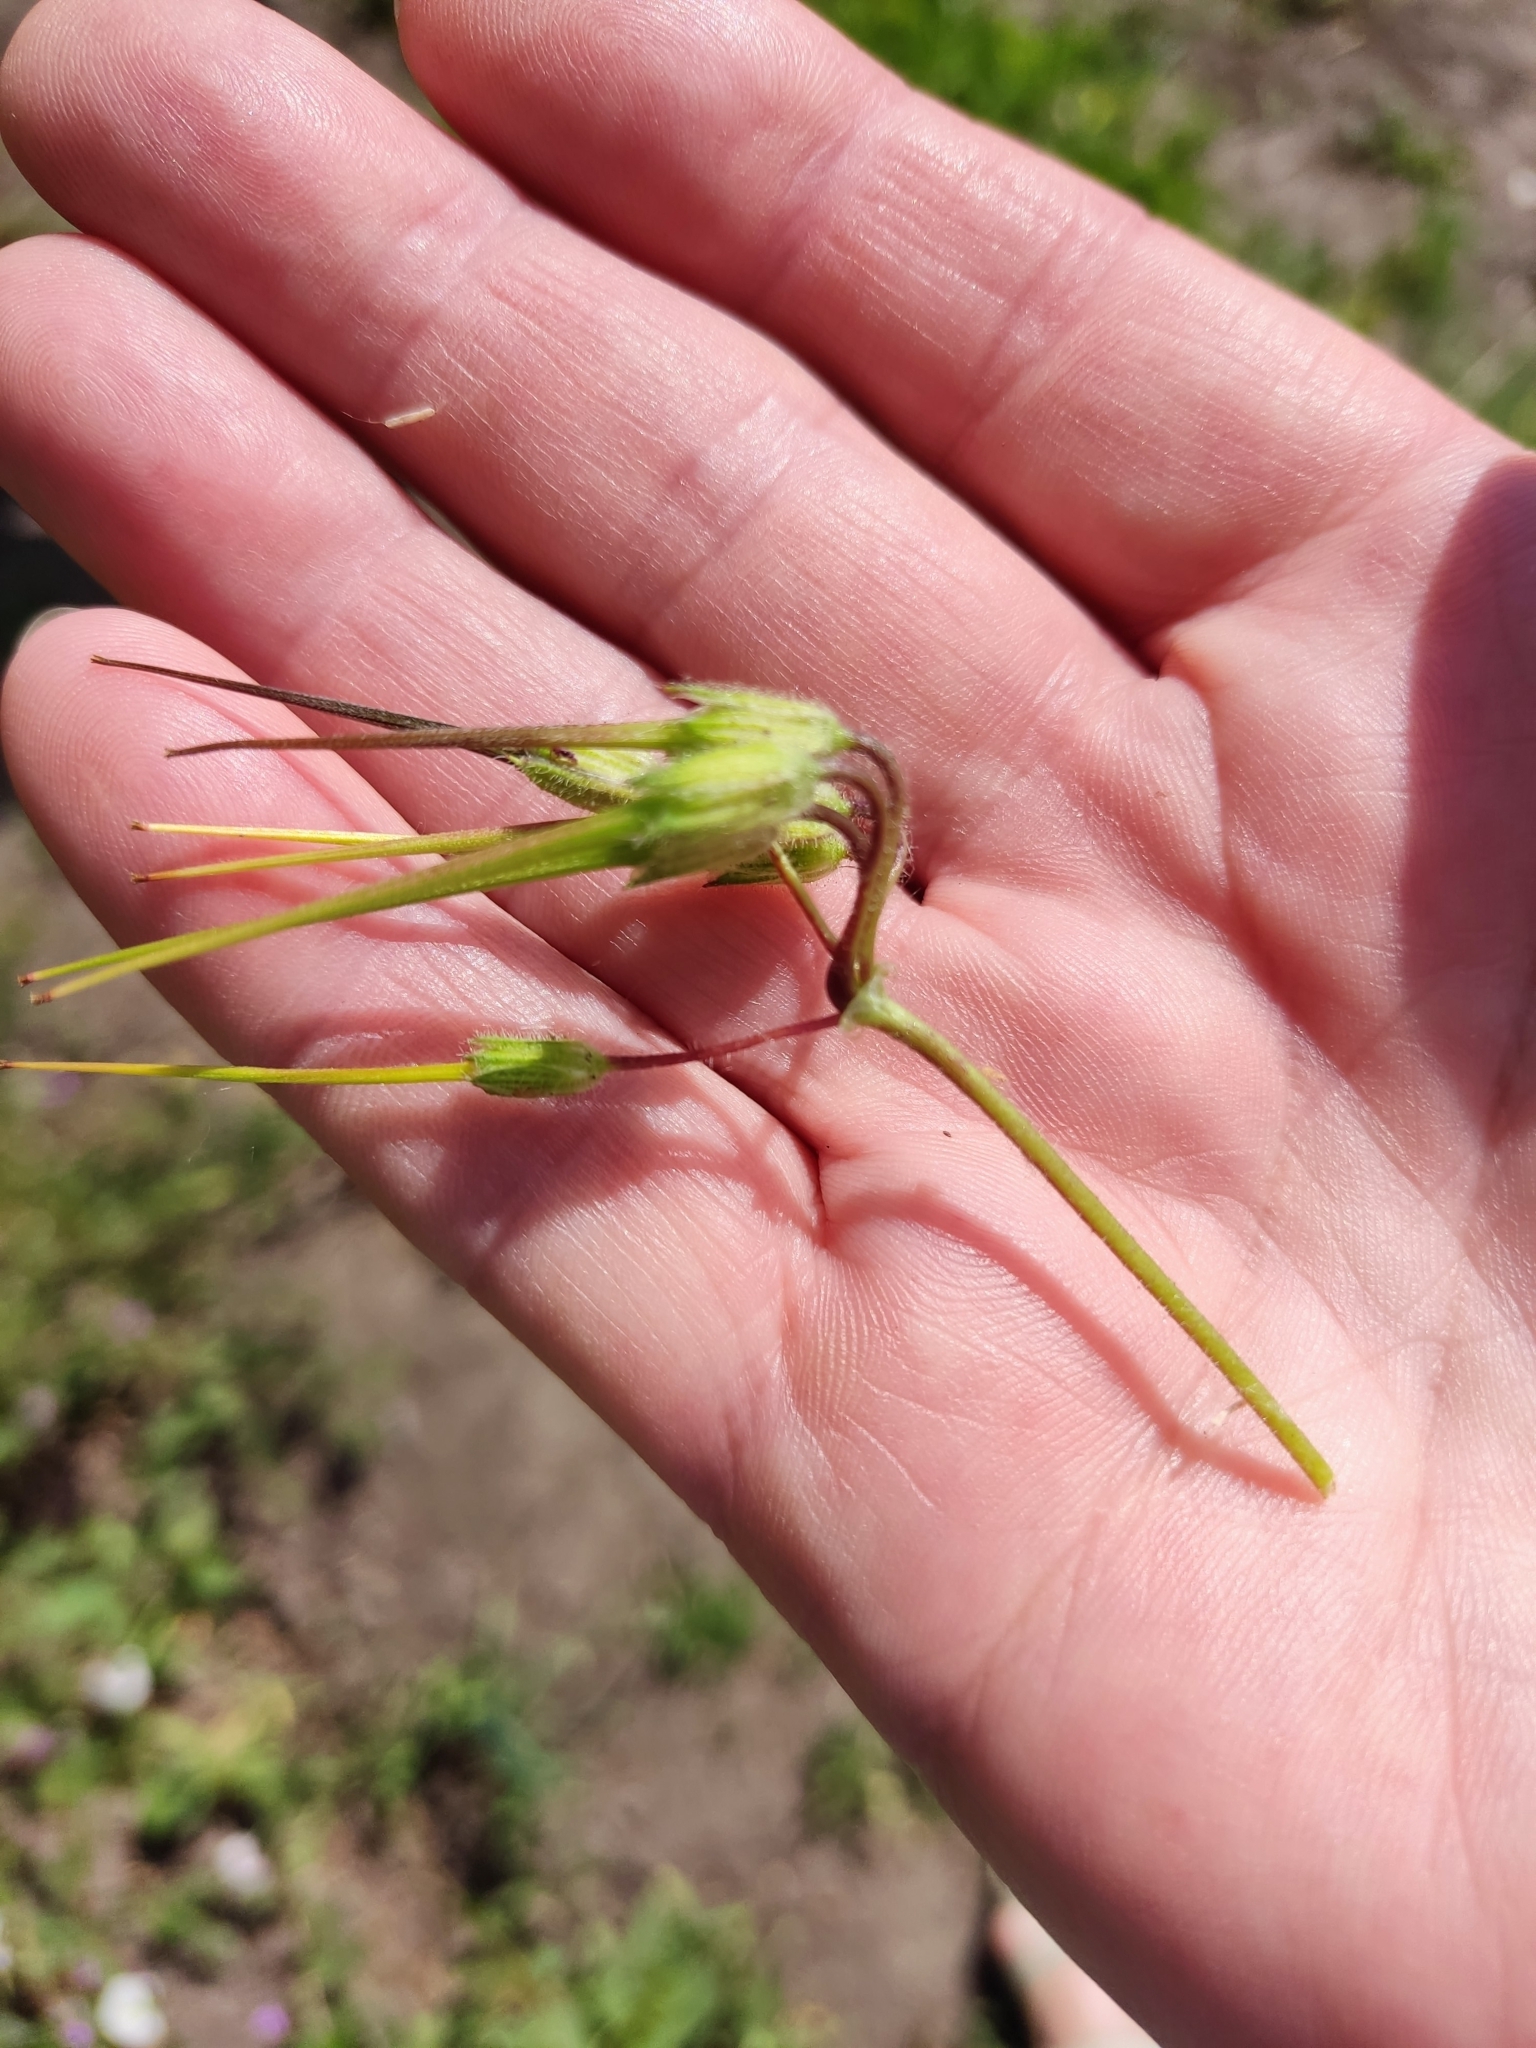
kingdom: Plantae
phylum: Tracheophyta
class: Magnoliopsida
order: Geraniales
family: Geraniaceae
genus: Erodium
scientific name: Erodium cicutarium
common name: Common stork's-bill
